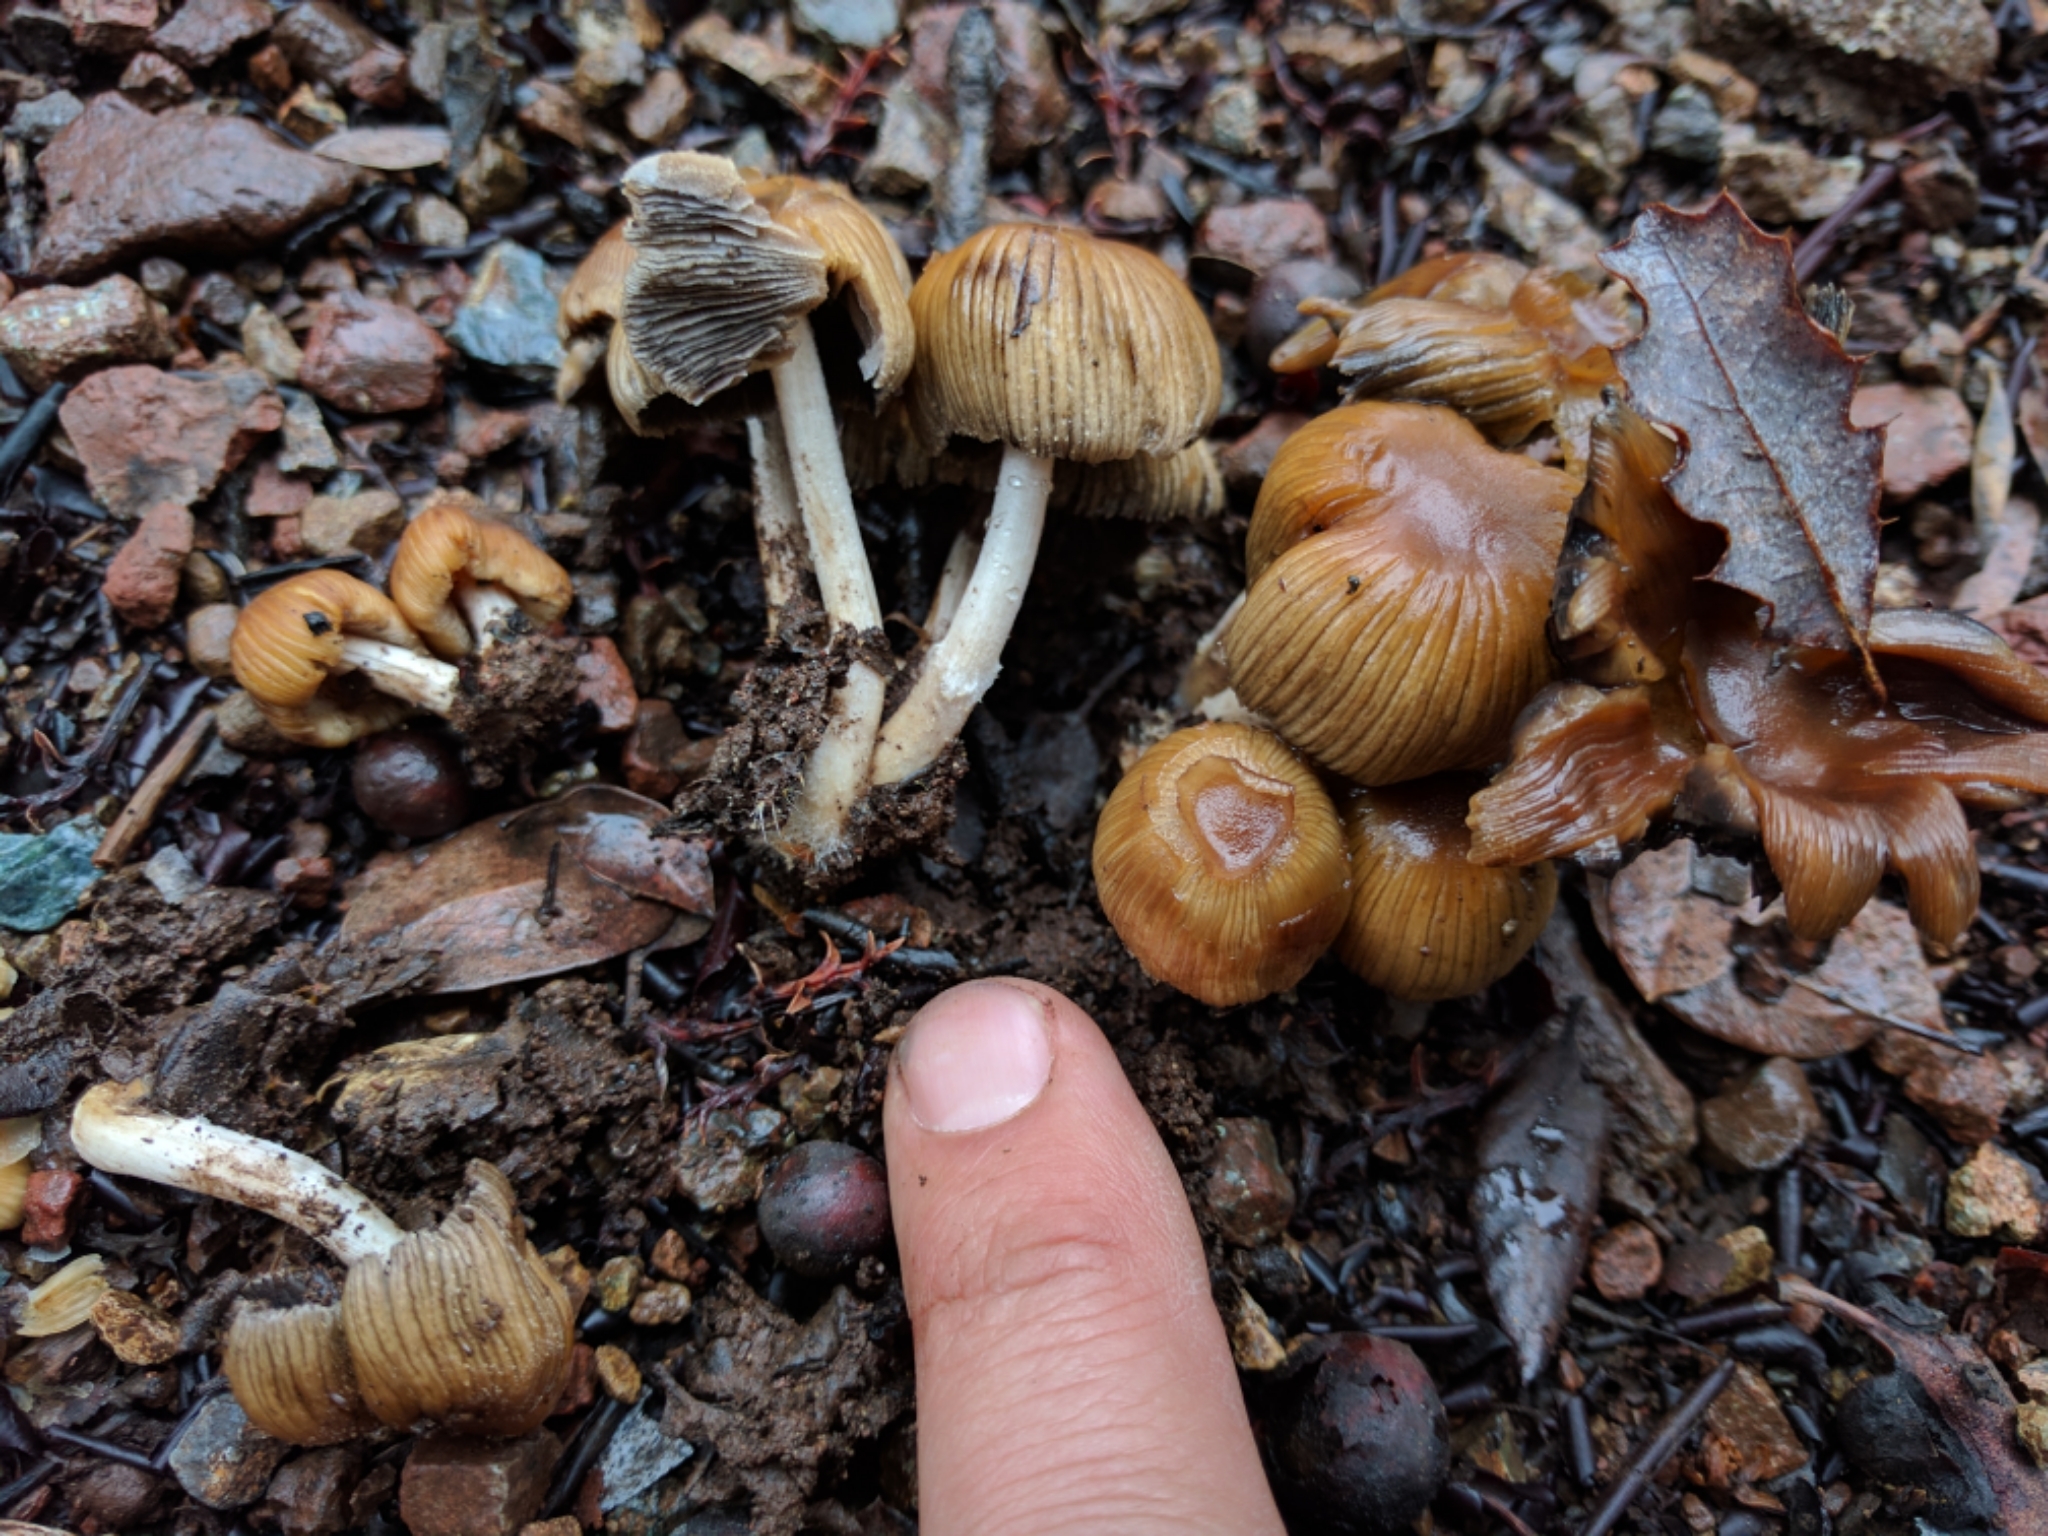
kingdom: Fungi
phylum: Basidiomycota
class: Agaricomycetes
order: Agaricales
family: Psathyrellaceae
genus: Coprinellus
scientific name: Coprinellus micaceus
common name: Glistening ink-cap
